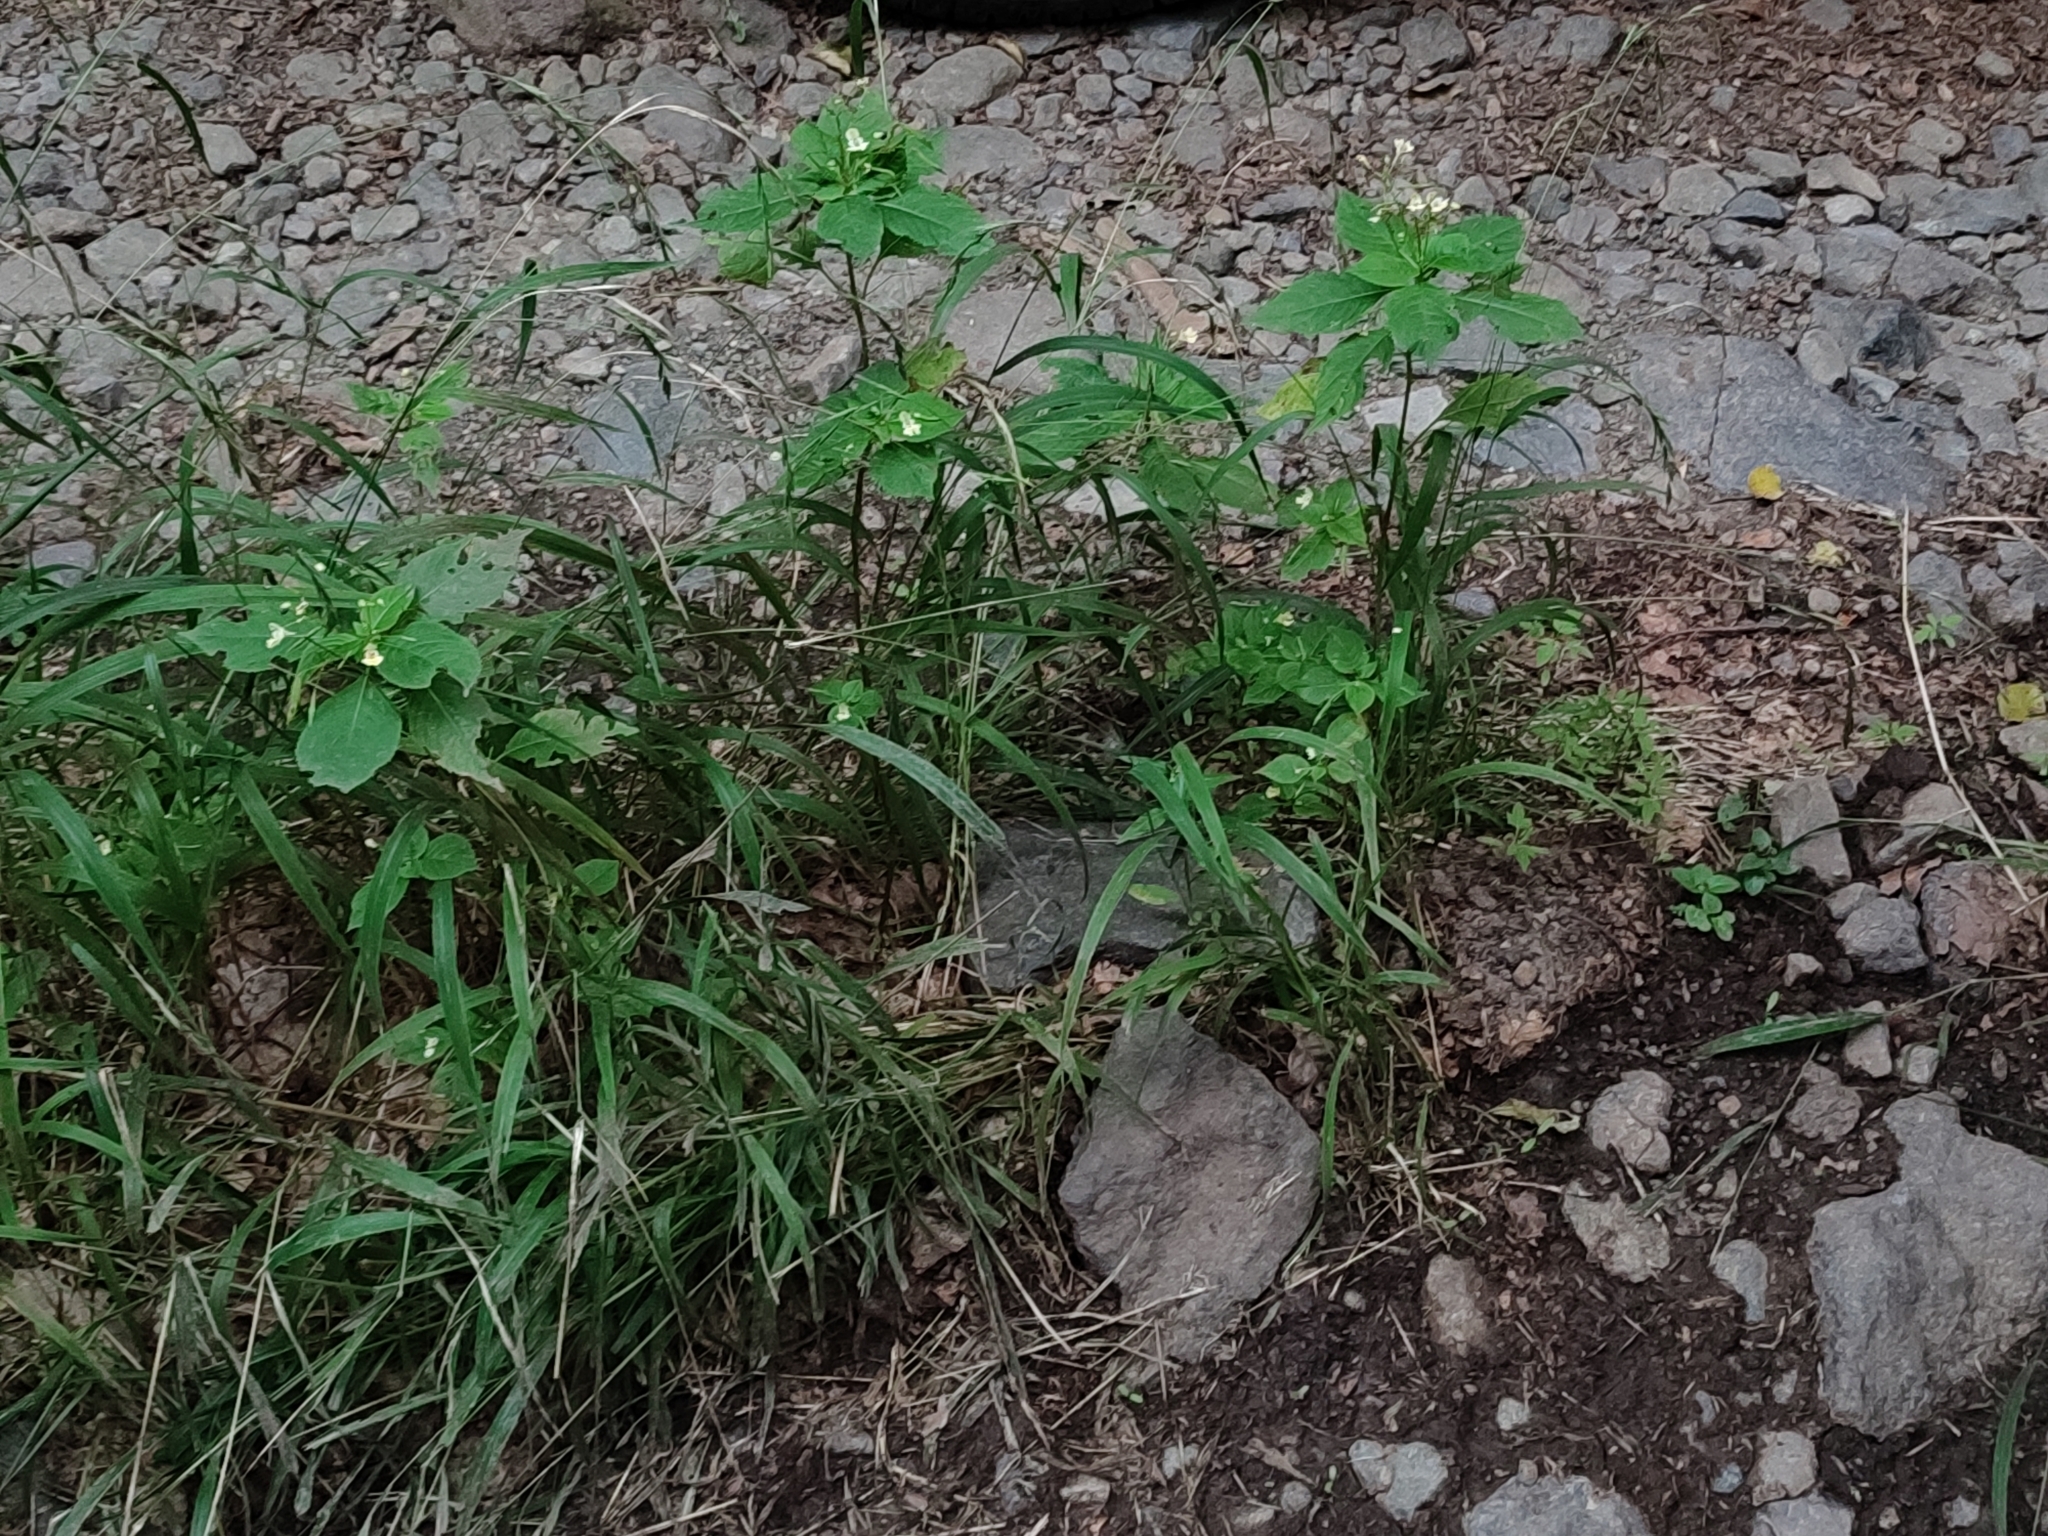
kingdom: Plantae
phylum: Tracheophyta
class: Magnoliopsida
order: Ericales
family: Balsaminaceae
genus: Impatiens
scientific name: Impatiens parviflora
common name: Small balsam
